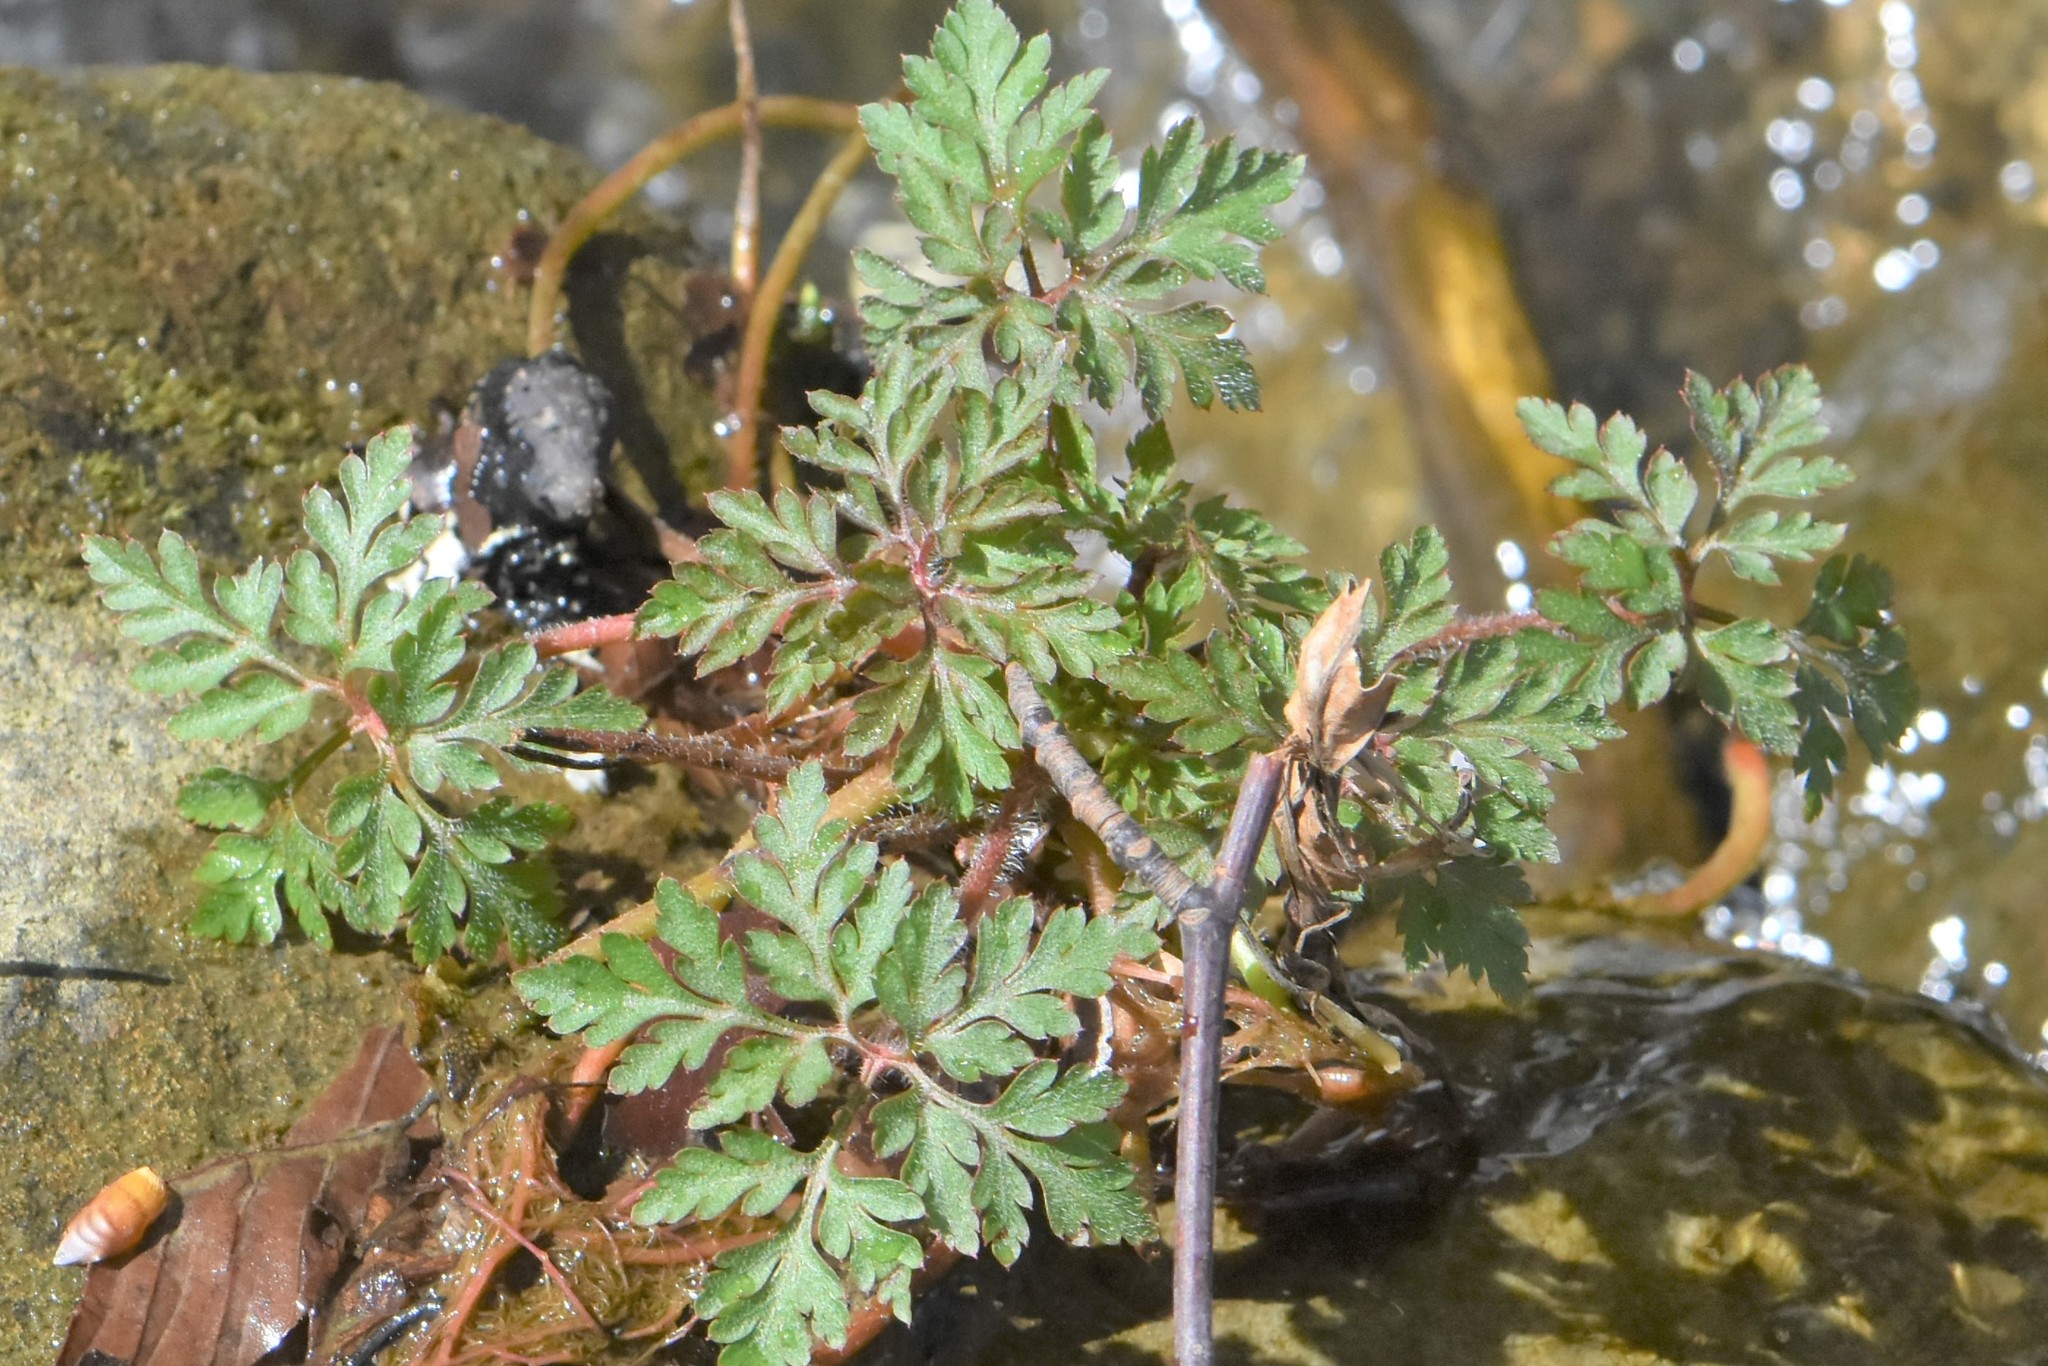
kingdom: Plantae
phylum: Tracheophyta
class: Magnoliopsida
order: Geraniales
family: Geraniaceae
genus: Geranium
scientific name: Geranium robertianum
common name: Herb-robert
